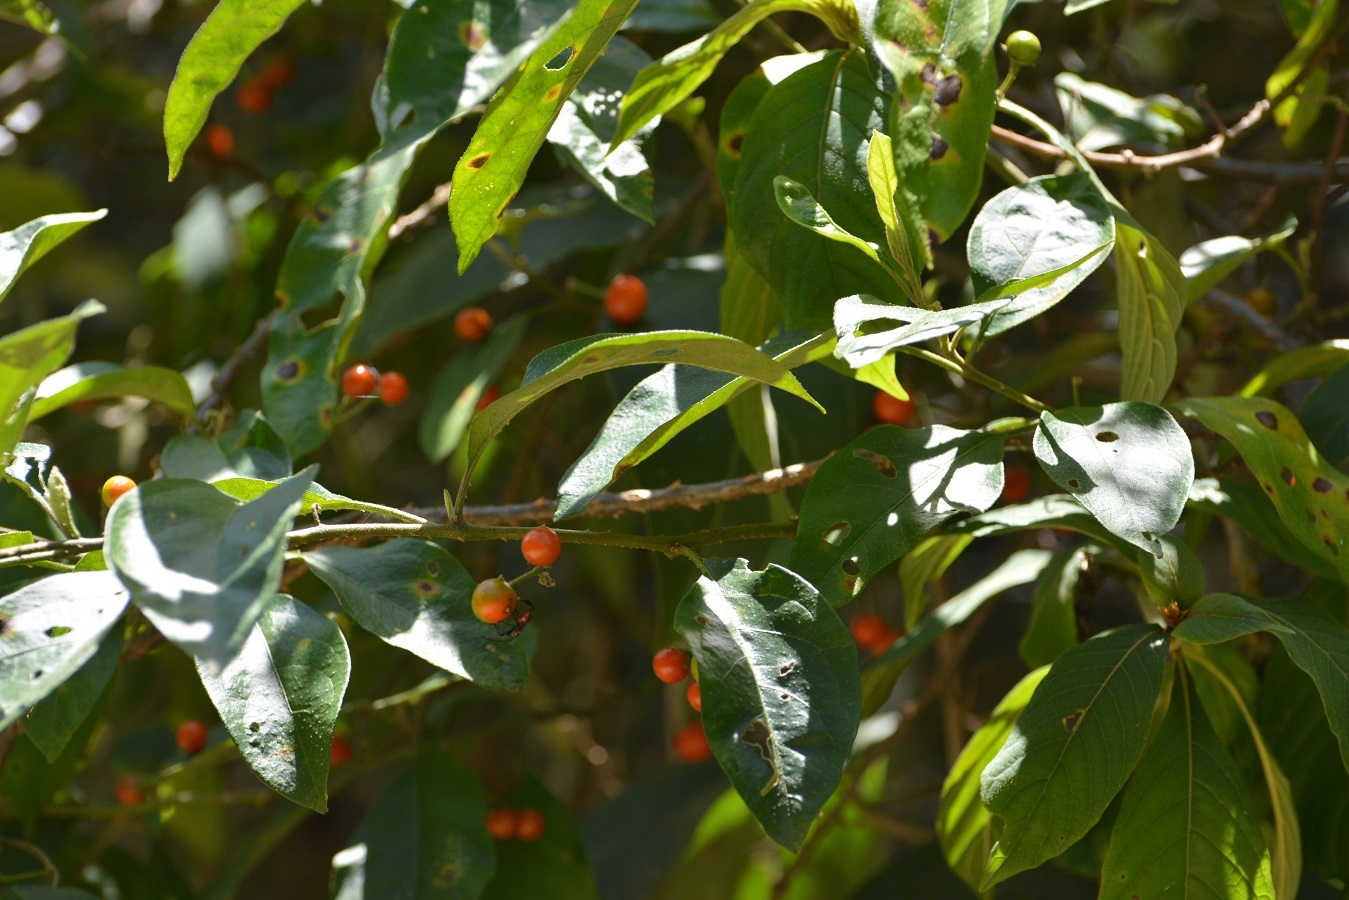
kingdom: Plantae
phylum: Tracheophyta
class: Magnoliopsida
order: Solanales
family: Solanaceae
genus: Solanum
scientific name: Solanum glaucescens
